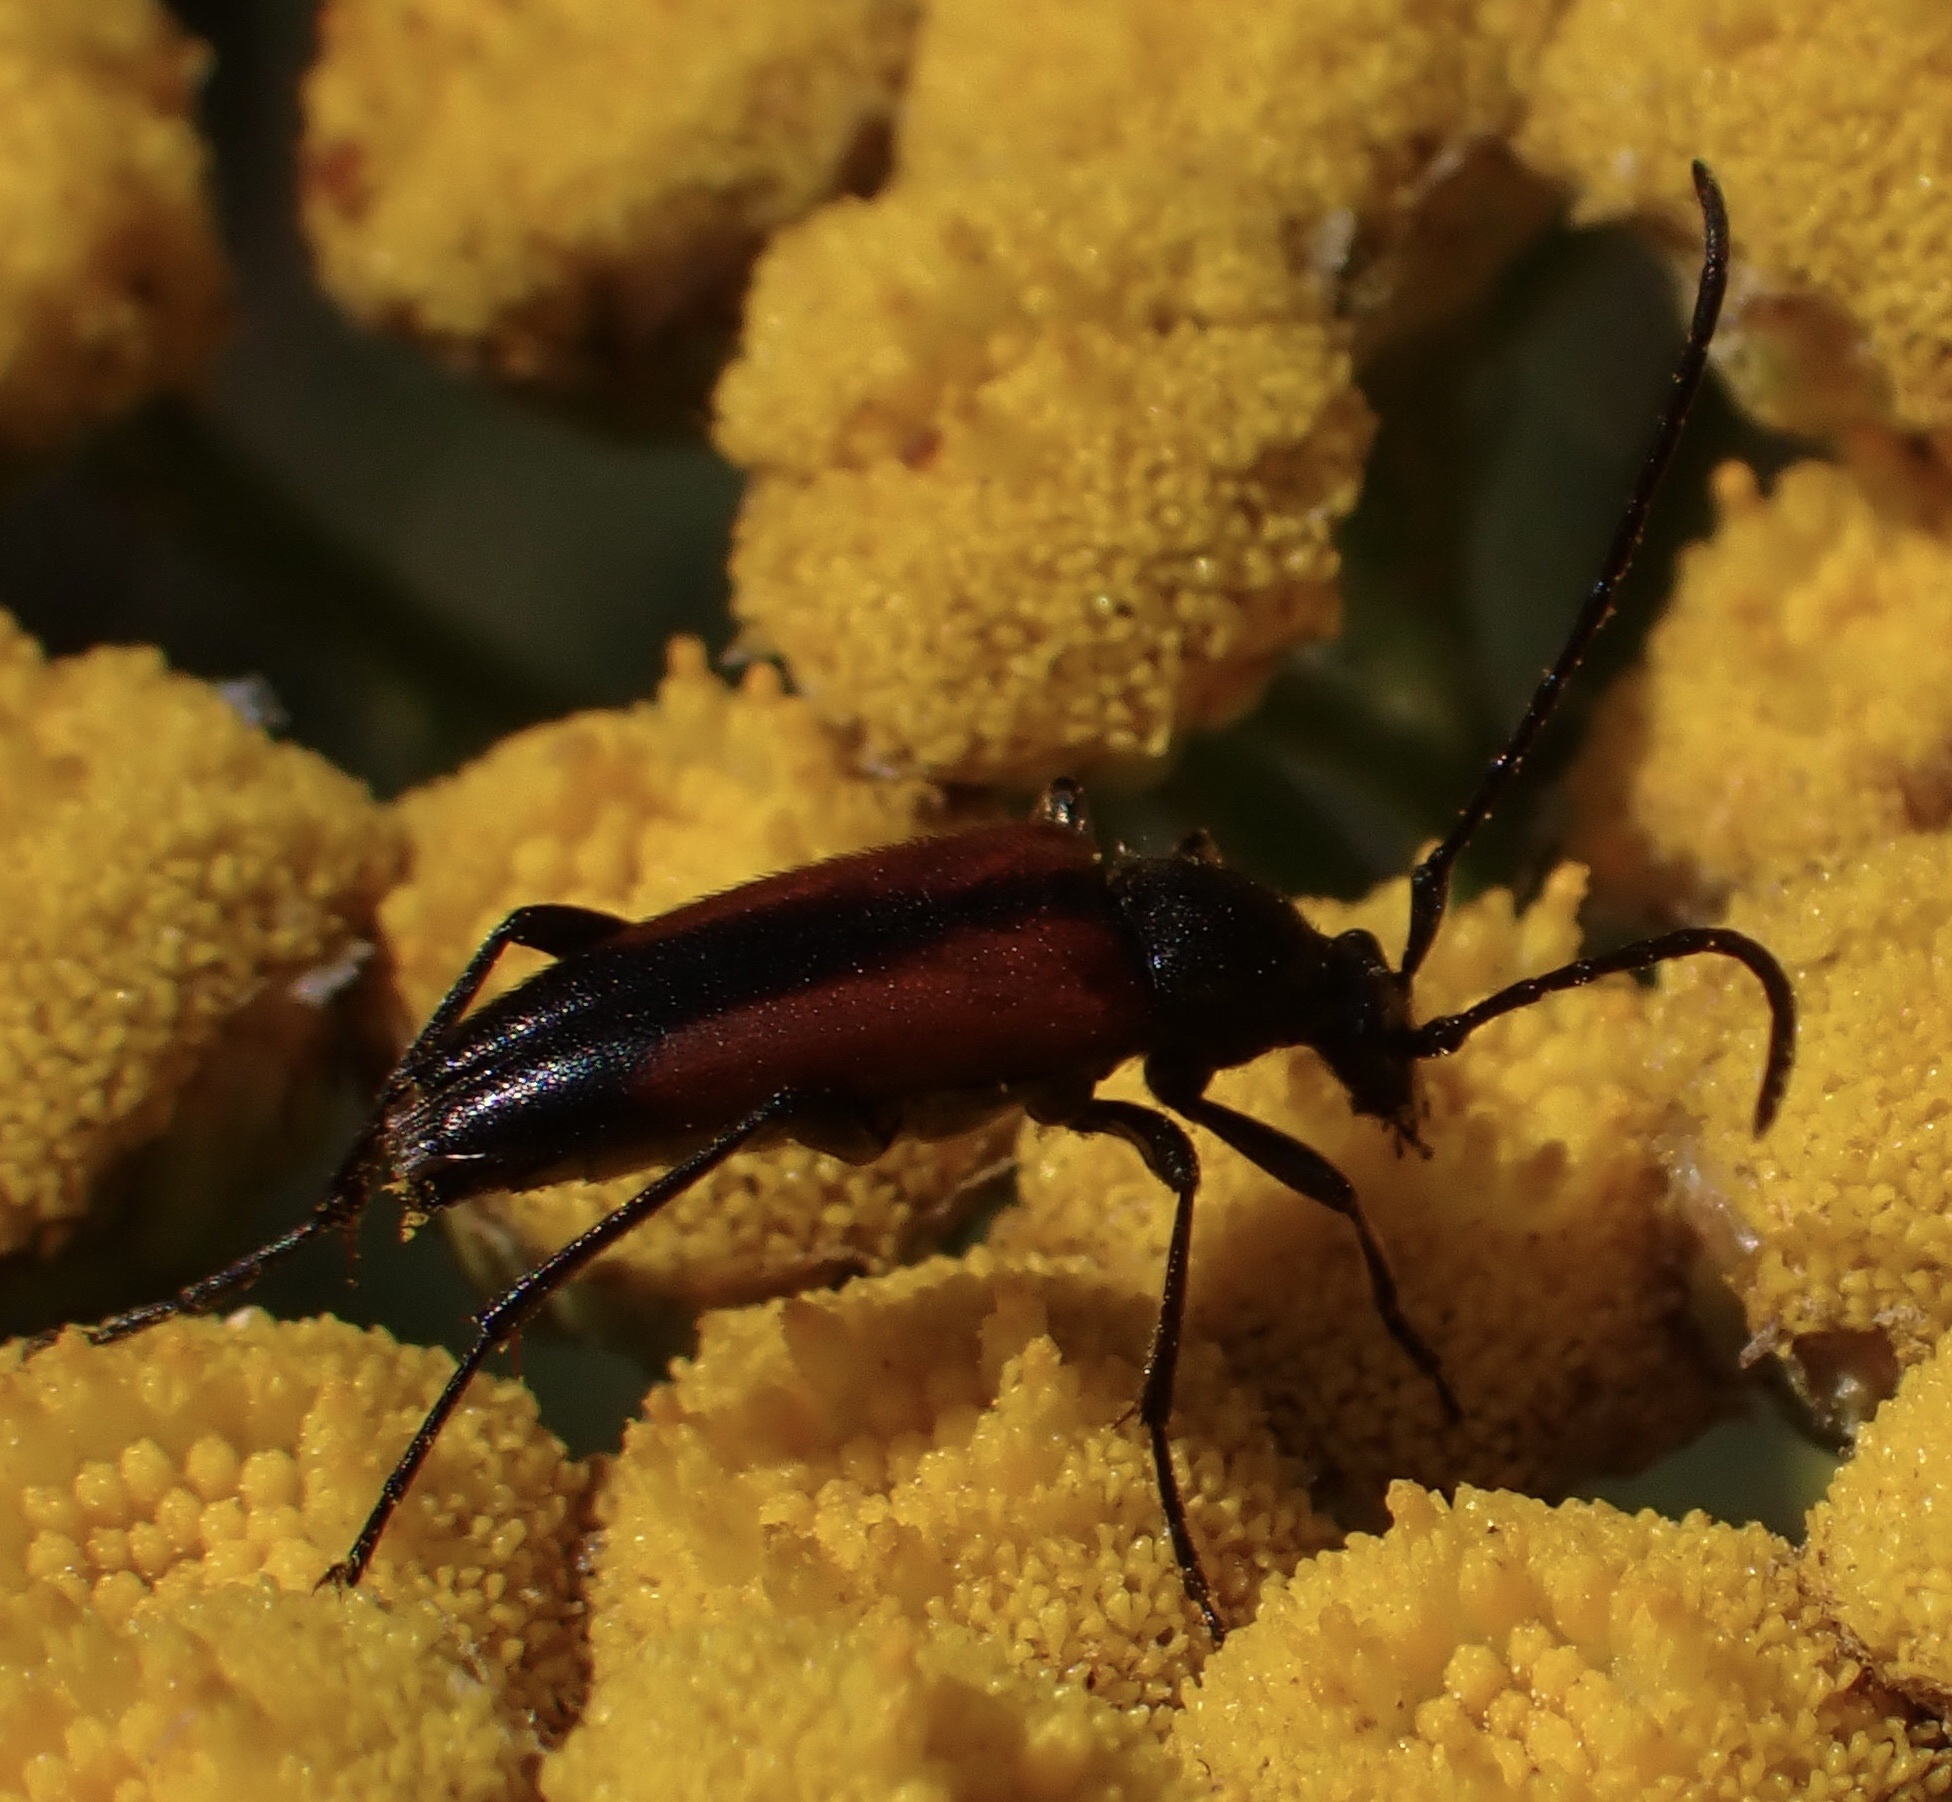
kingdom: Animalia
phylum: Arthropoda
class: Insecta
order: Coleoptera
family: Cerambycidae
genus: Stenurella
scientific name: Stenurella melanura
